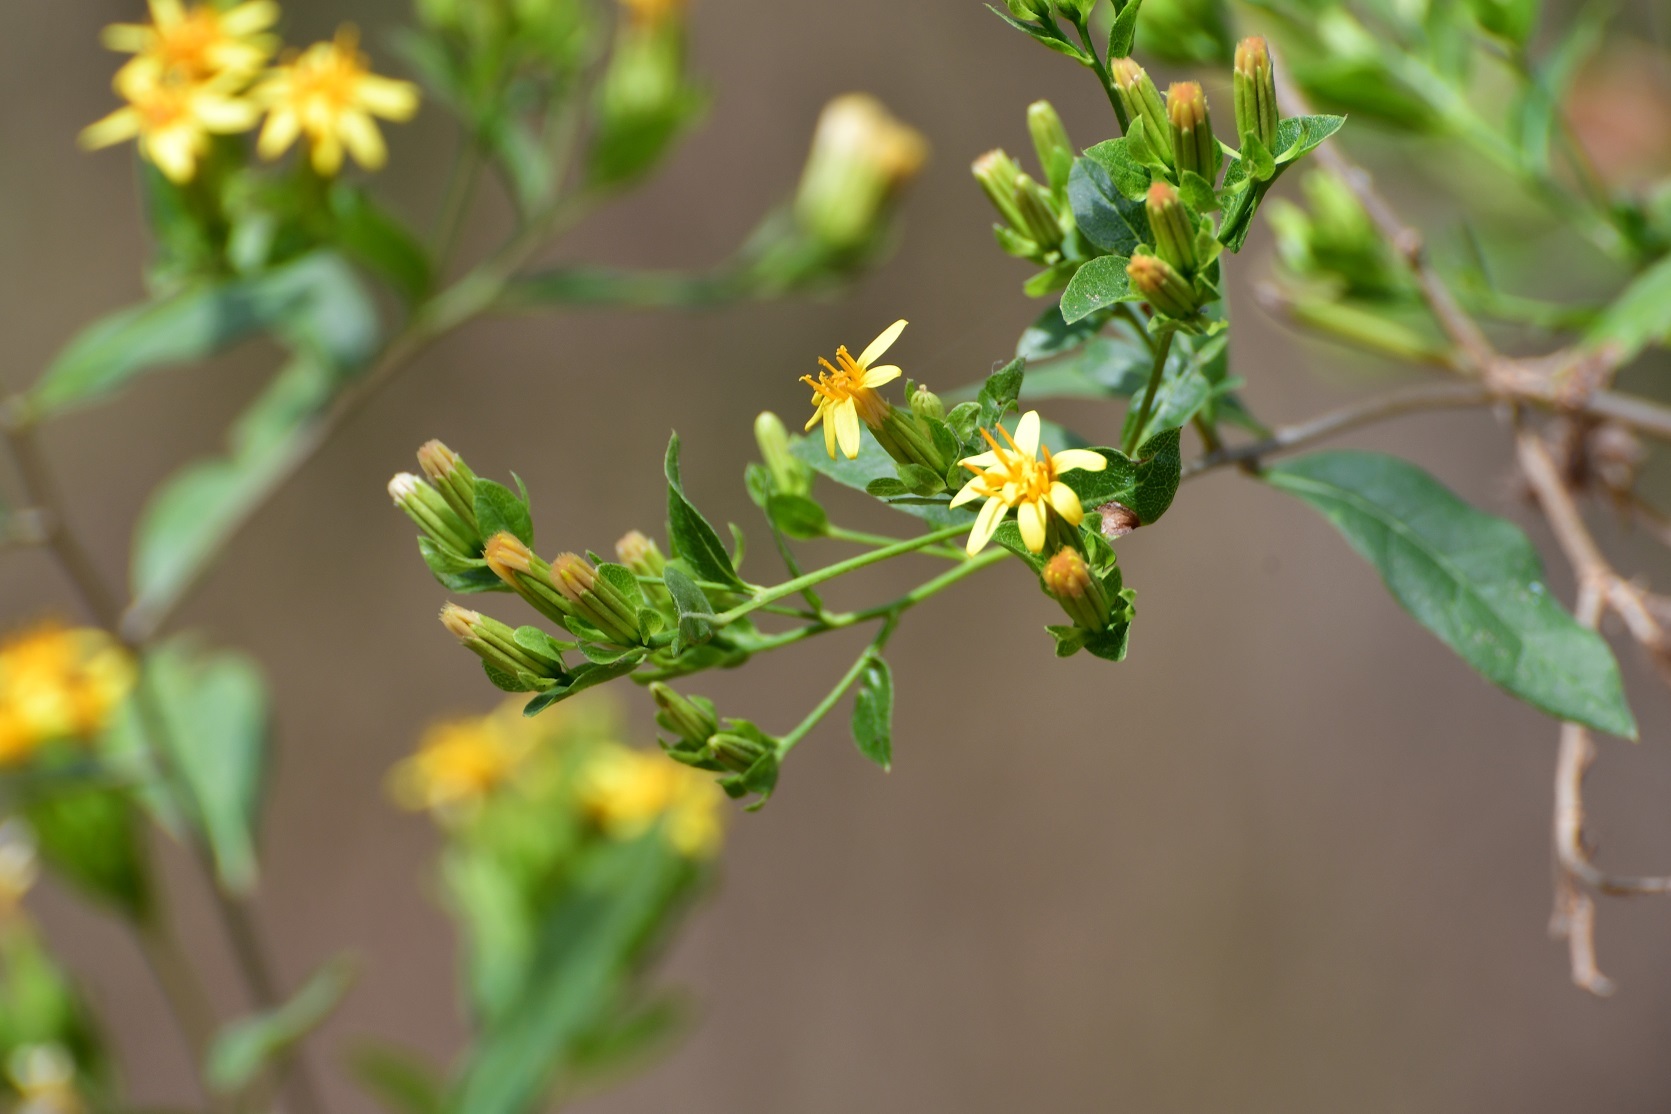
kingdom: Plantae
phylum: Tracheophyta
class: Magnoliopsida
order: Asterales
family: Asteraceae
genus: Trixis
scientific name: Trixis inula
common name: Tropical threefold
